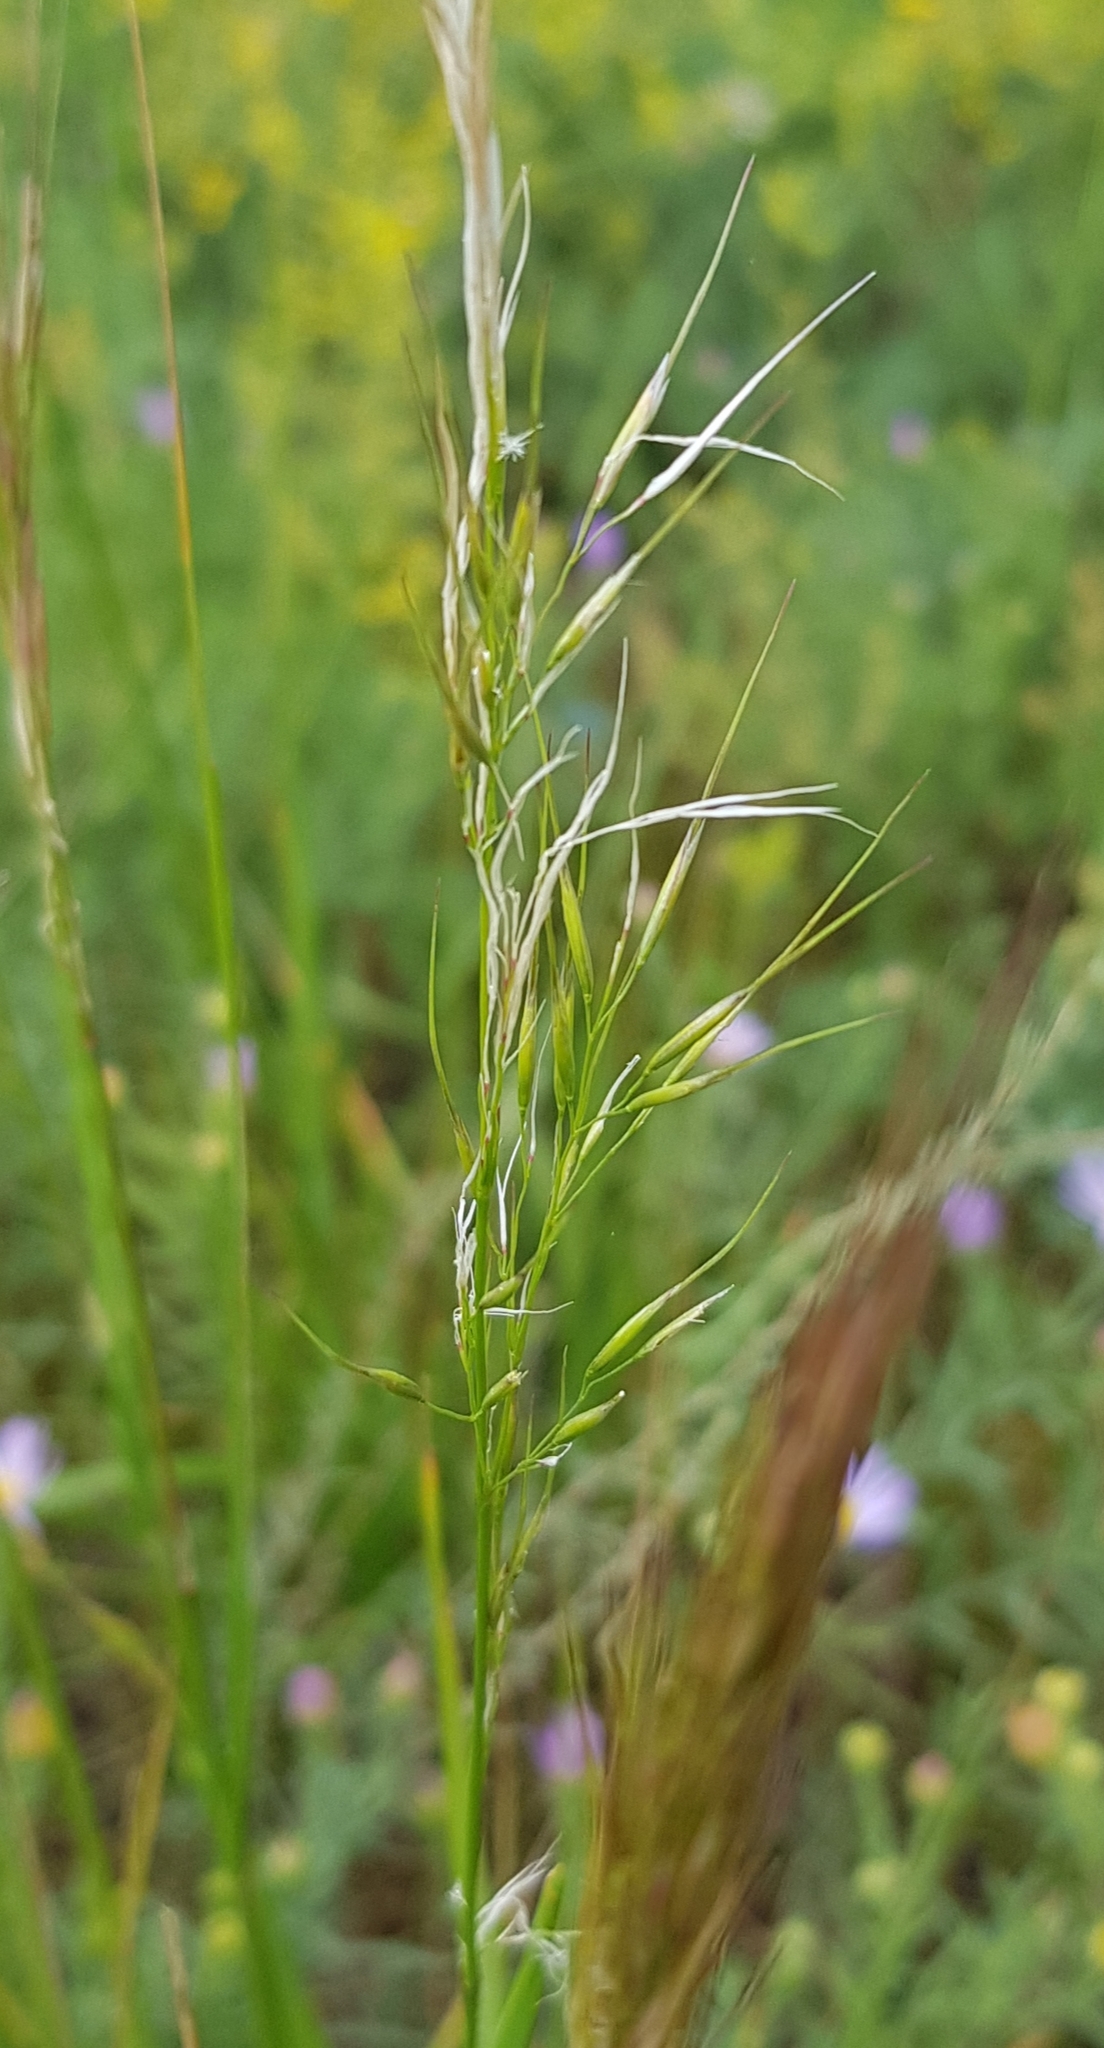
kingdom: Plantae
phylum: Tracheophyta
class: Liliopsida
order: Poales
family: Poaceae
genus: Achnatherum
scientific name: Achnatherum sibiricum
